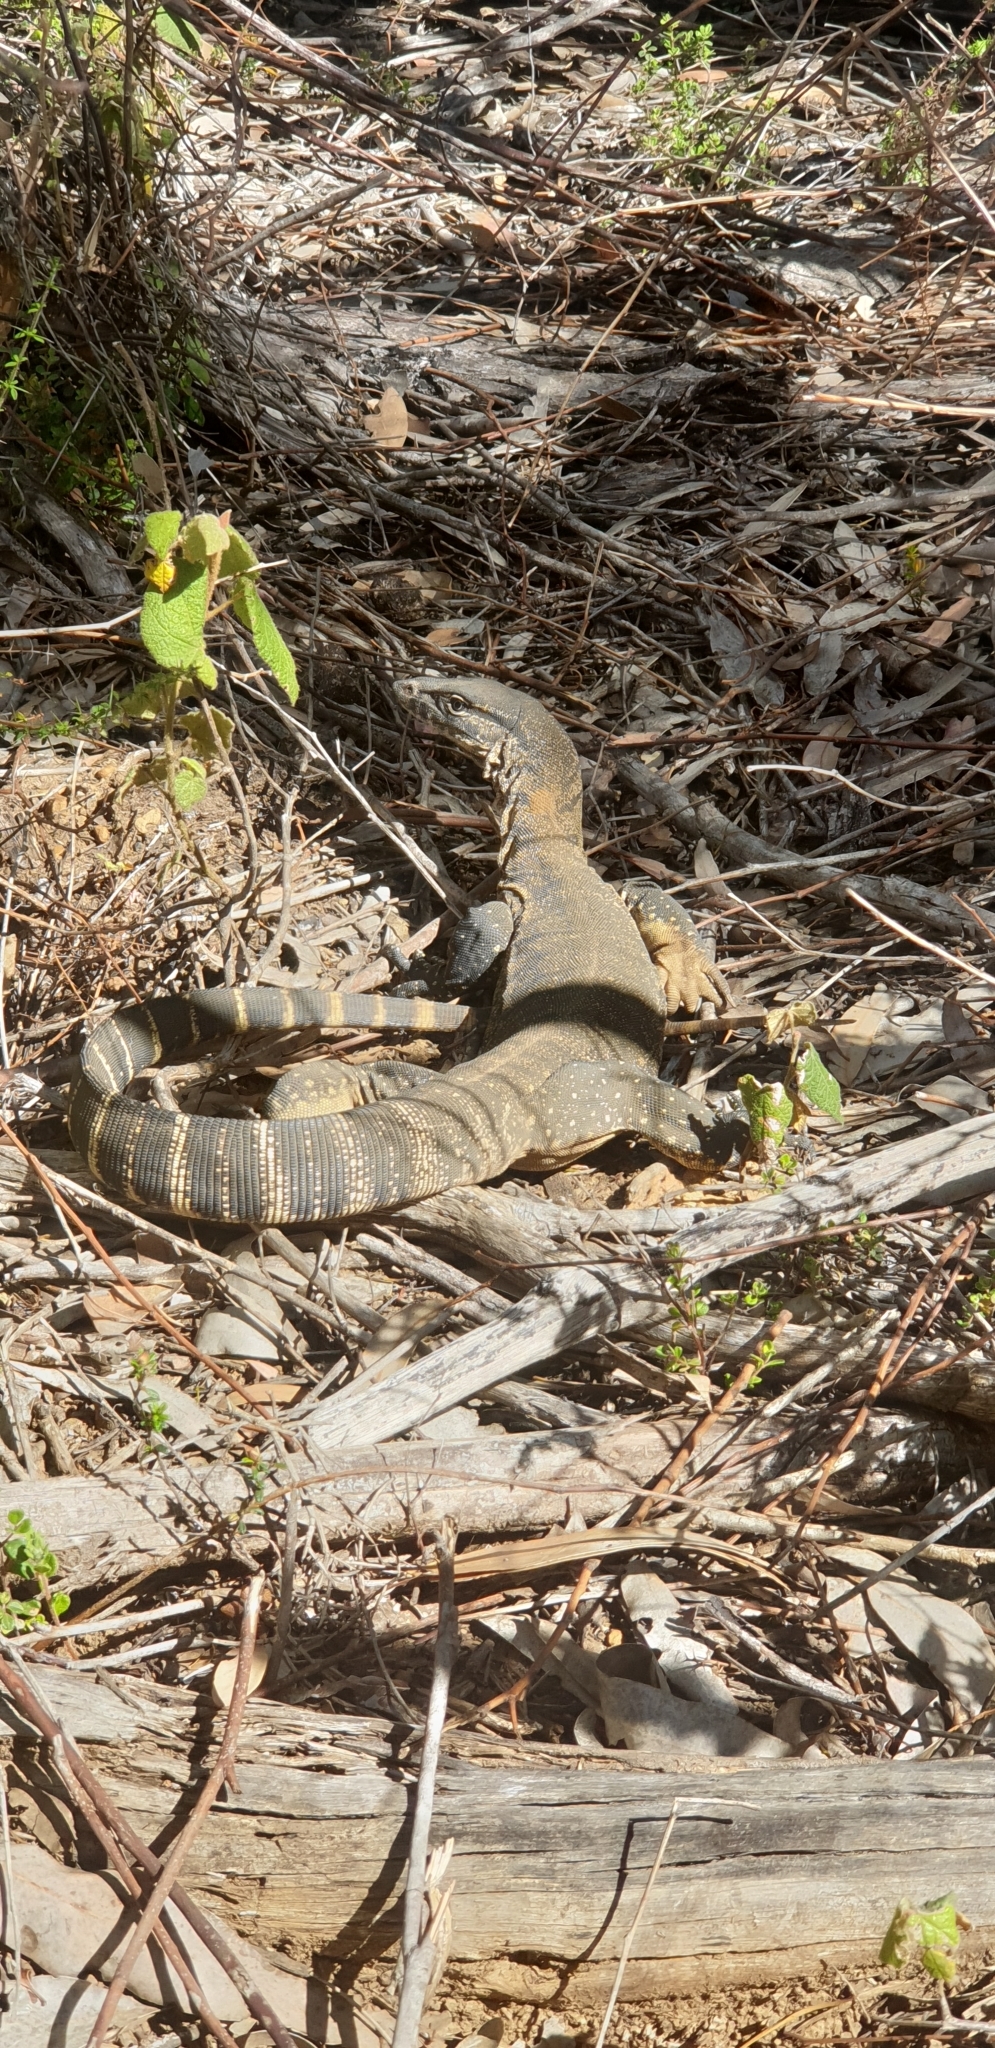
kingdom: Animalia
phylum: Chordata
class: Squamata
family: Varanidae
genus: Varanus
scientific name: Varanus rosenbergi
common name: Heath monitor
